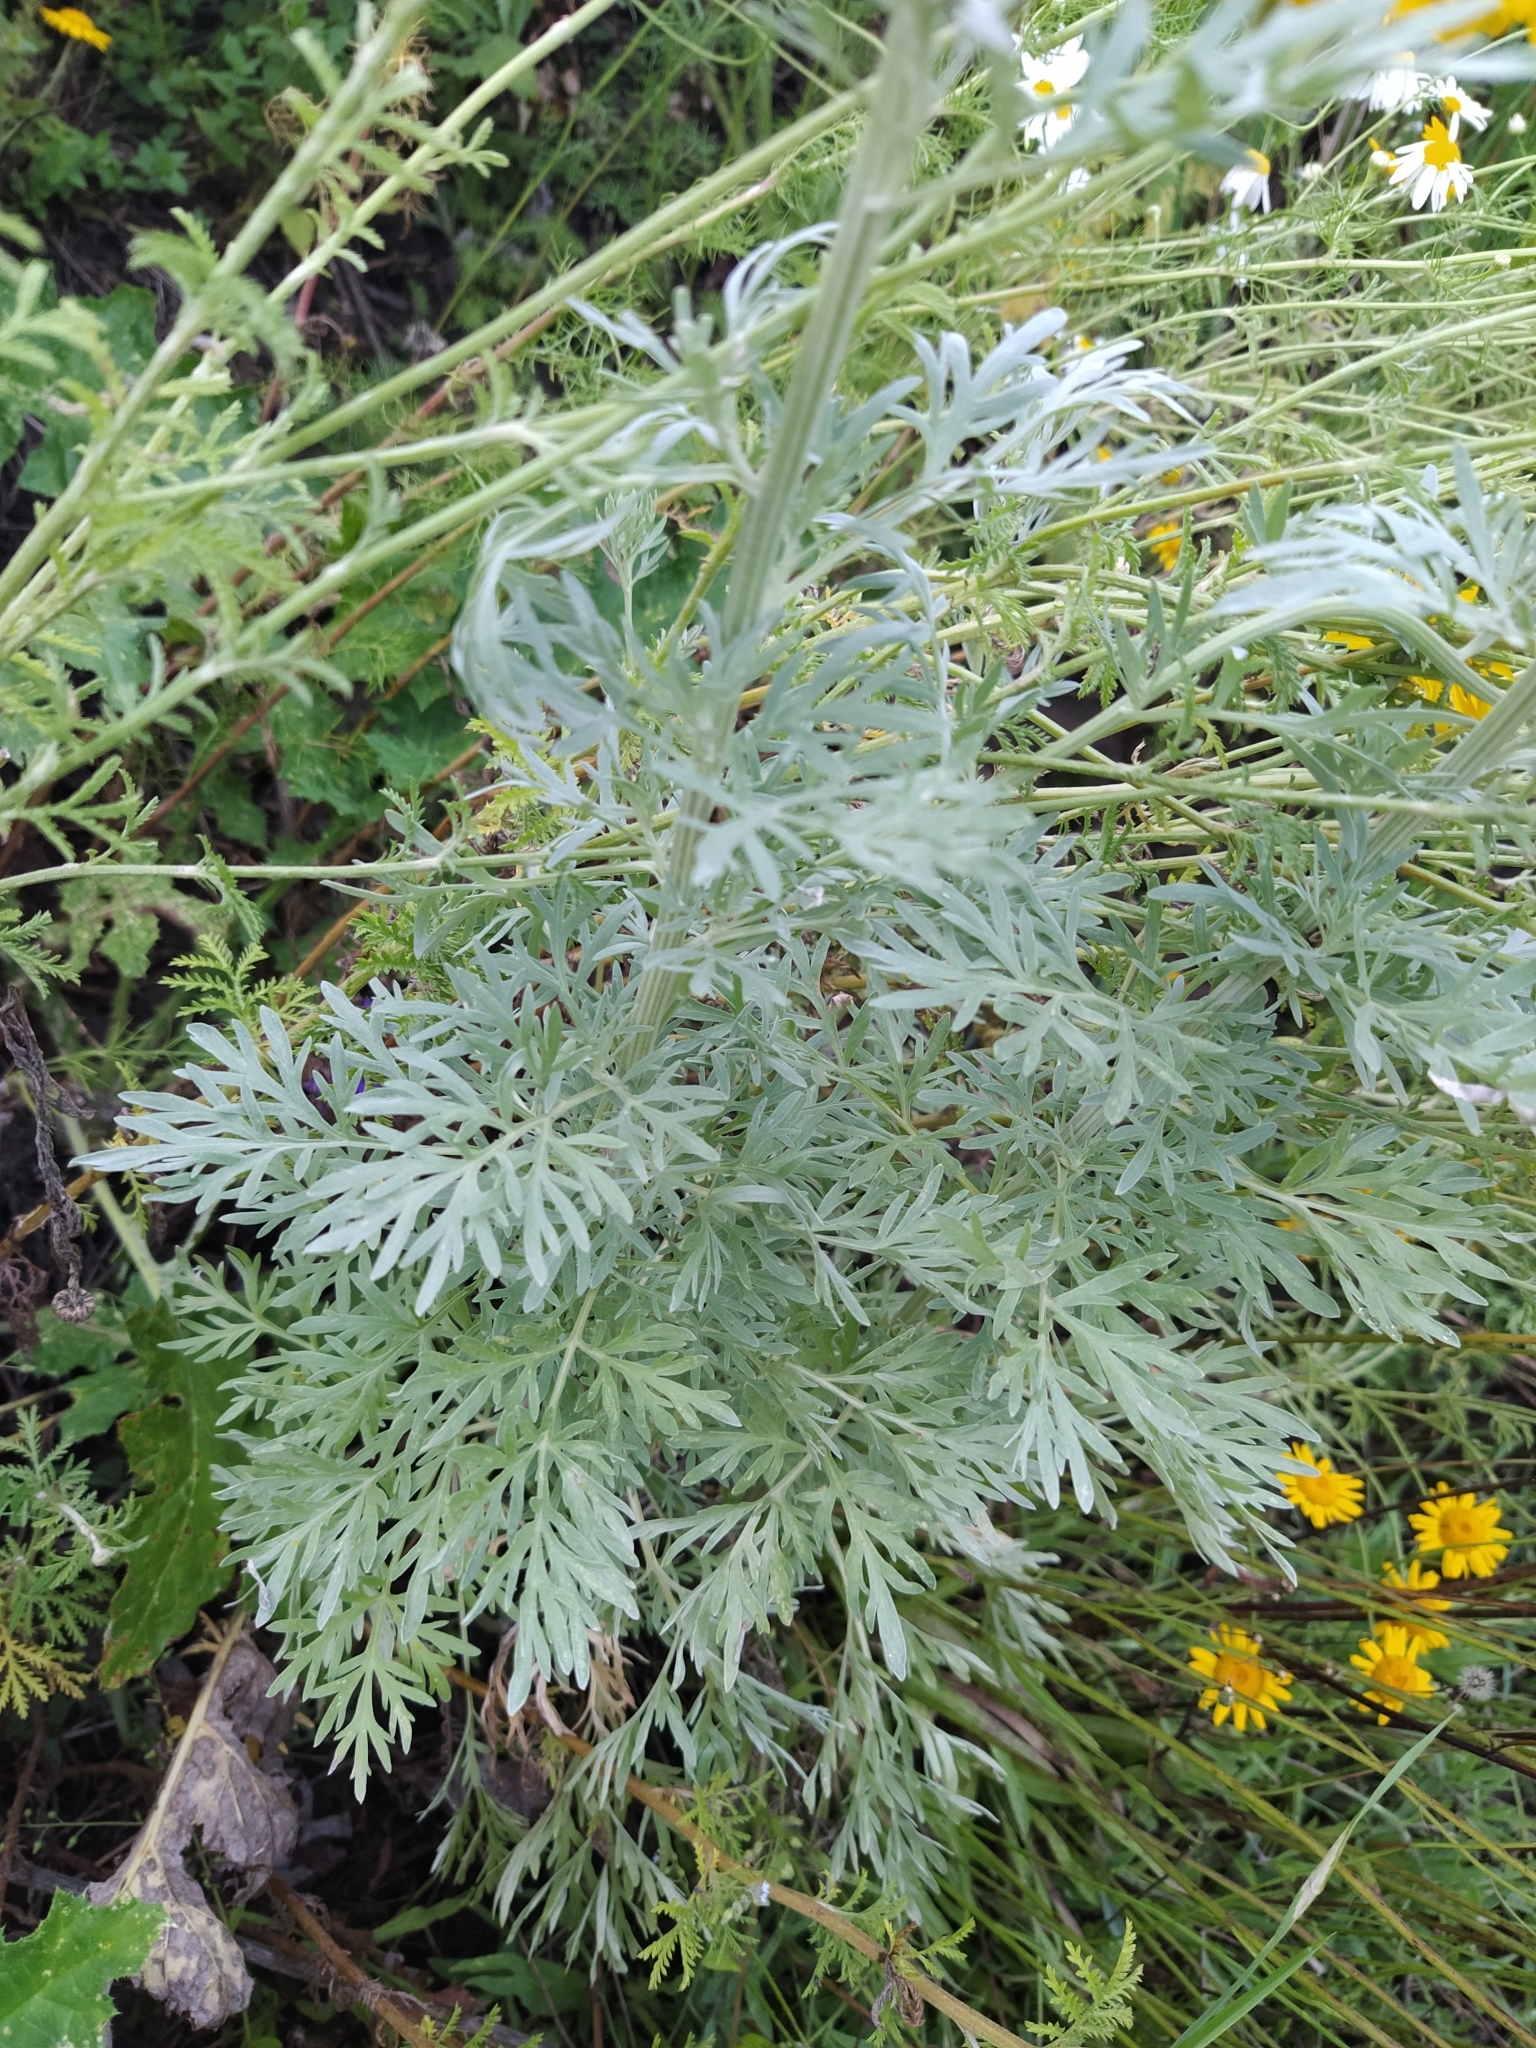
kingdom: Plantae
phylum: Tracheophyta
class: Magnoliopsida
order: Asterales
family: Asteraceae
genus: Artemisia
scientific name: Artemisia absinthium
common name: Wormwood
